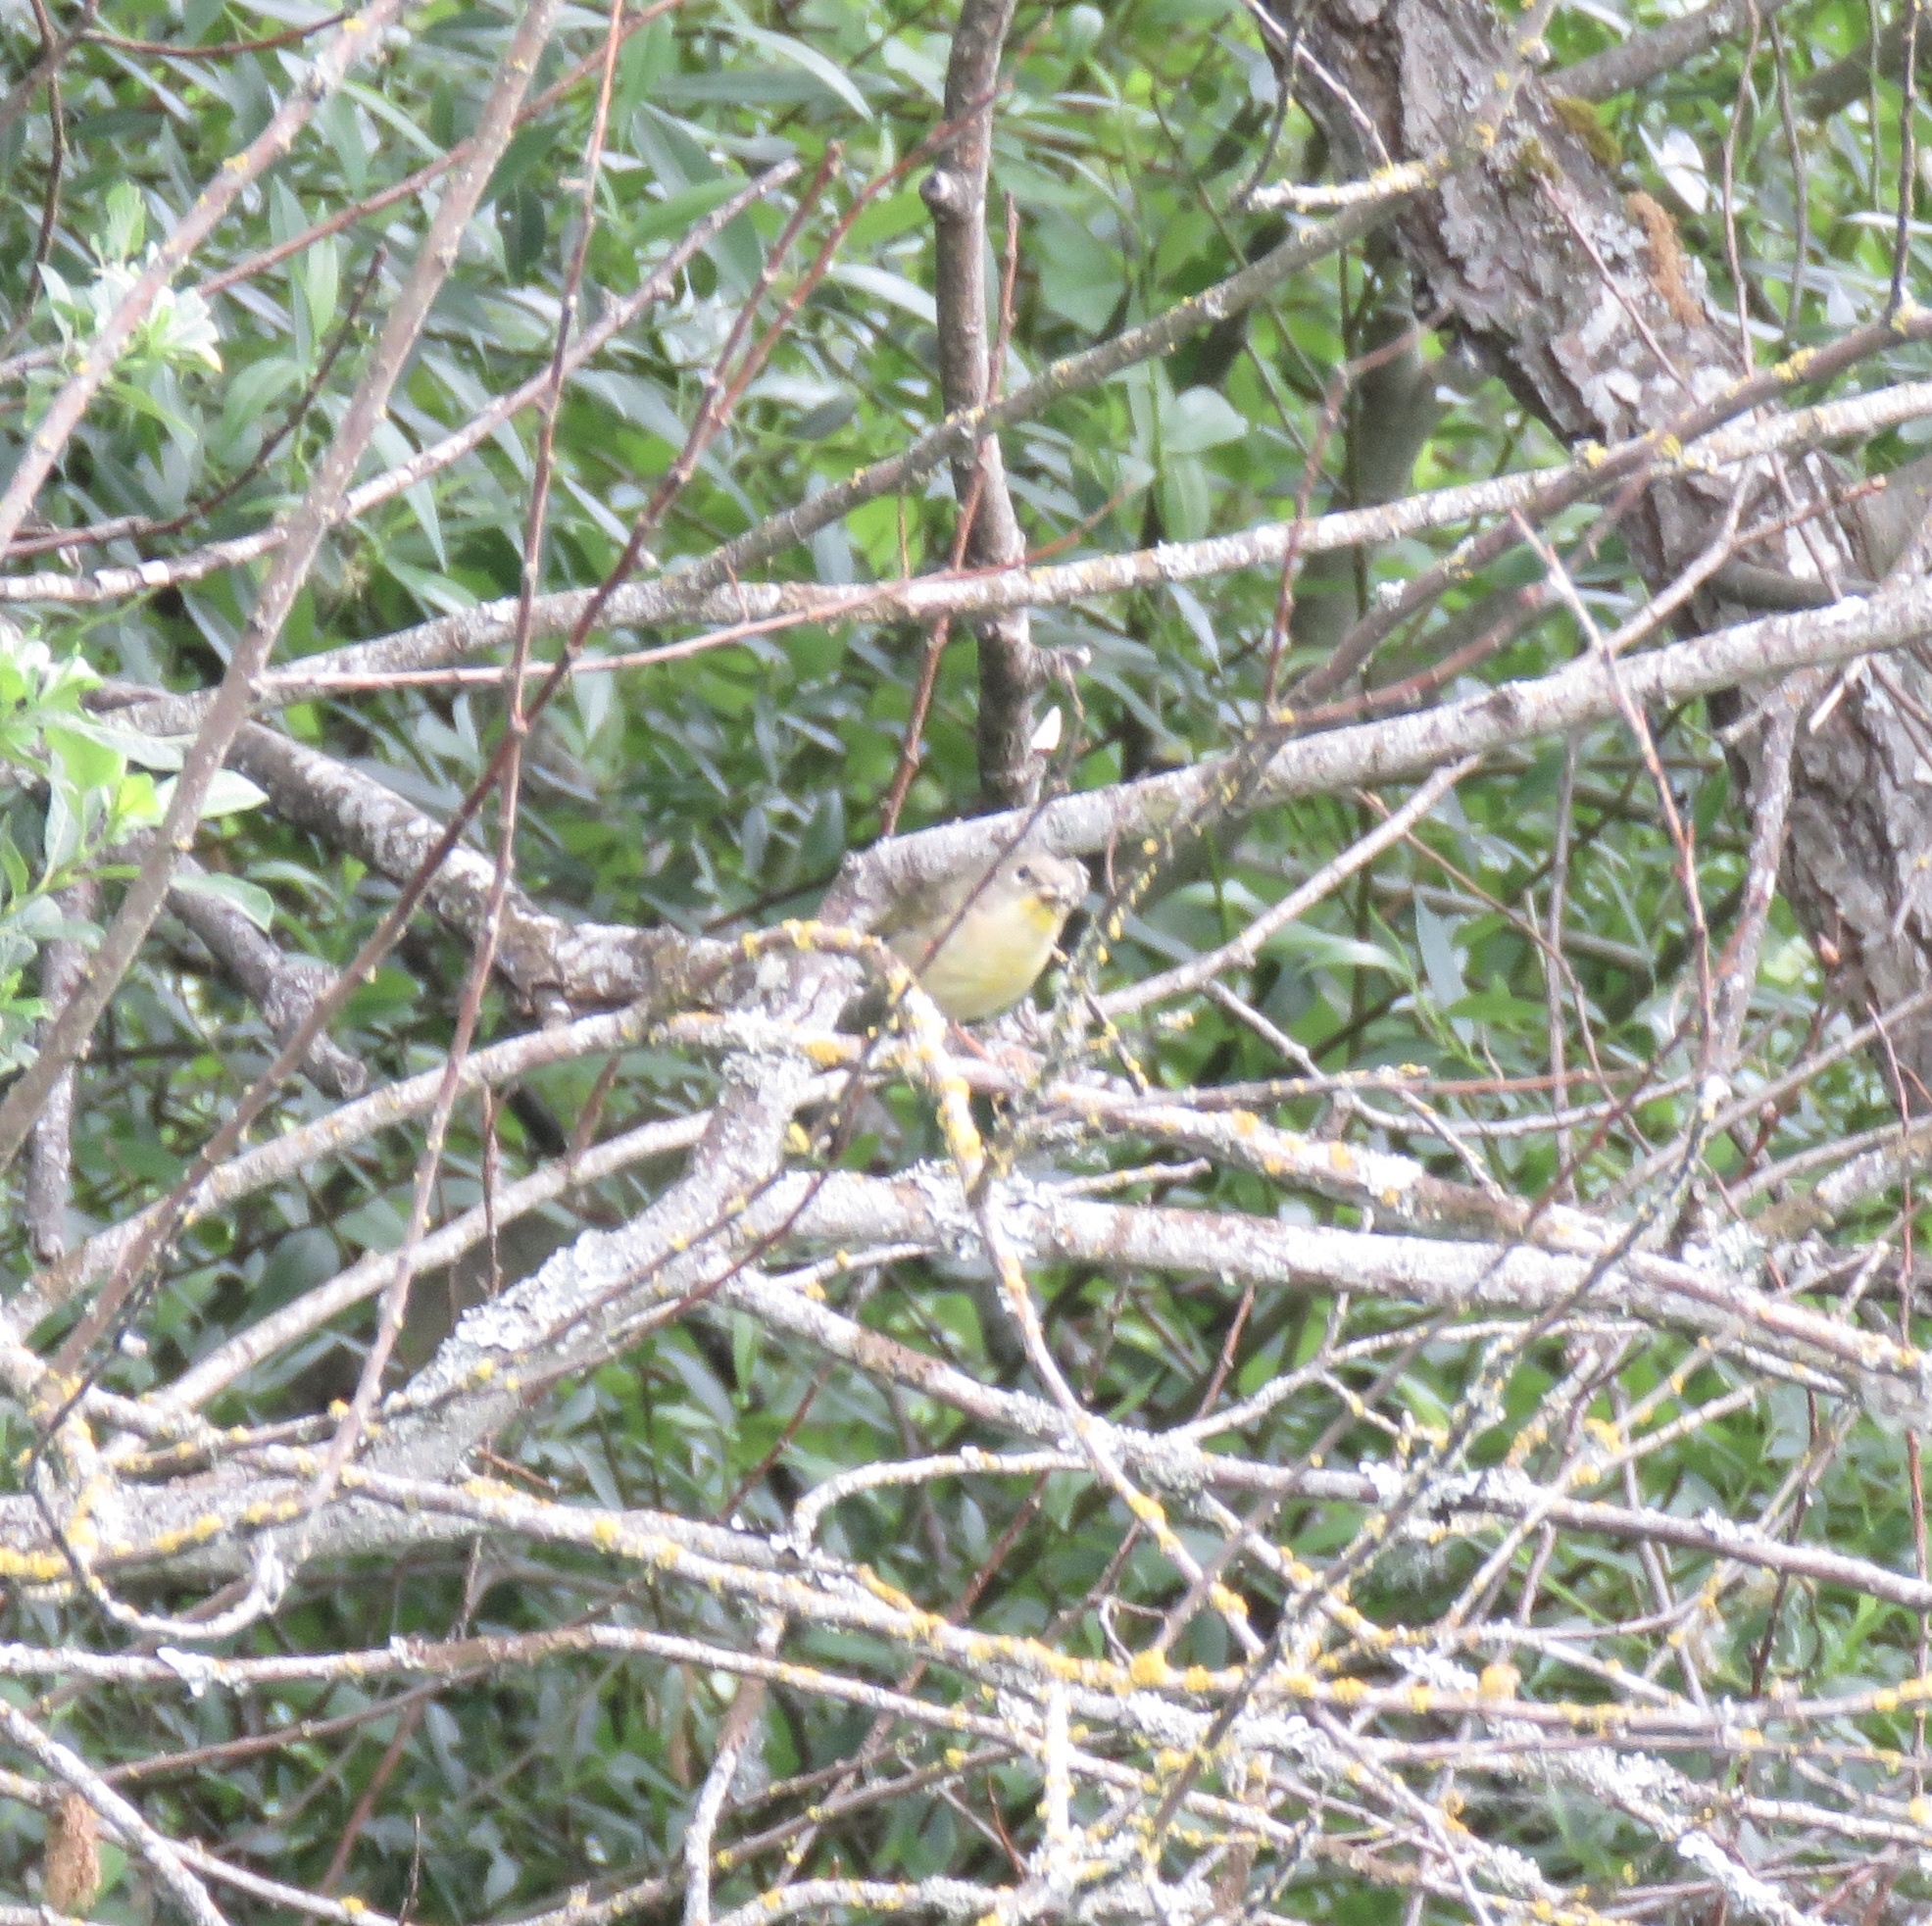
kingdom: Animalia
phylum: Chordata
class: Aves
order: Passeriformes
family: Parulidae
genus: Geothlypis
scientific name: Geothlypis trichas
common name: Common yellowthroat
